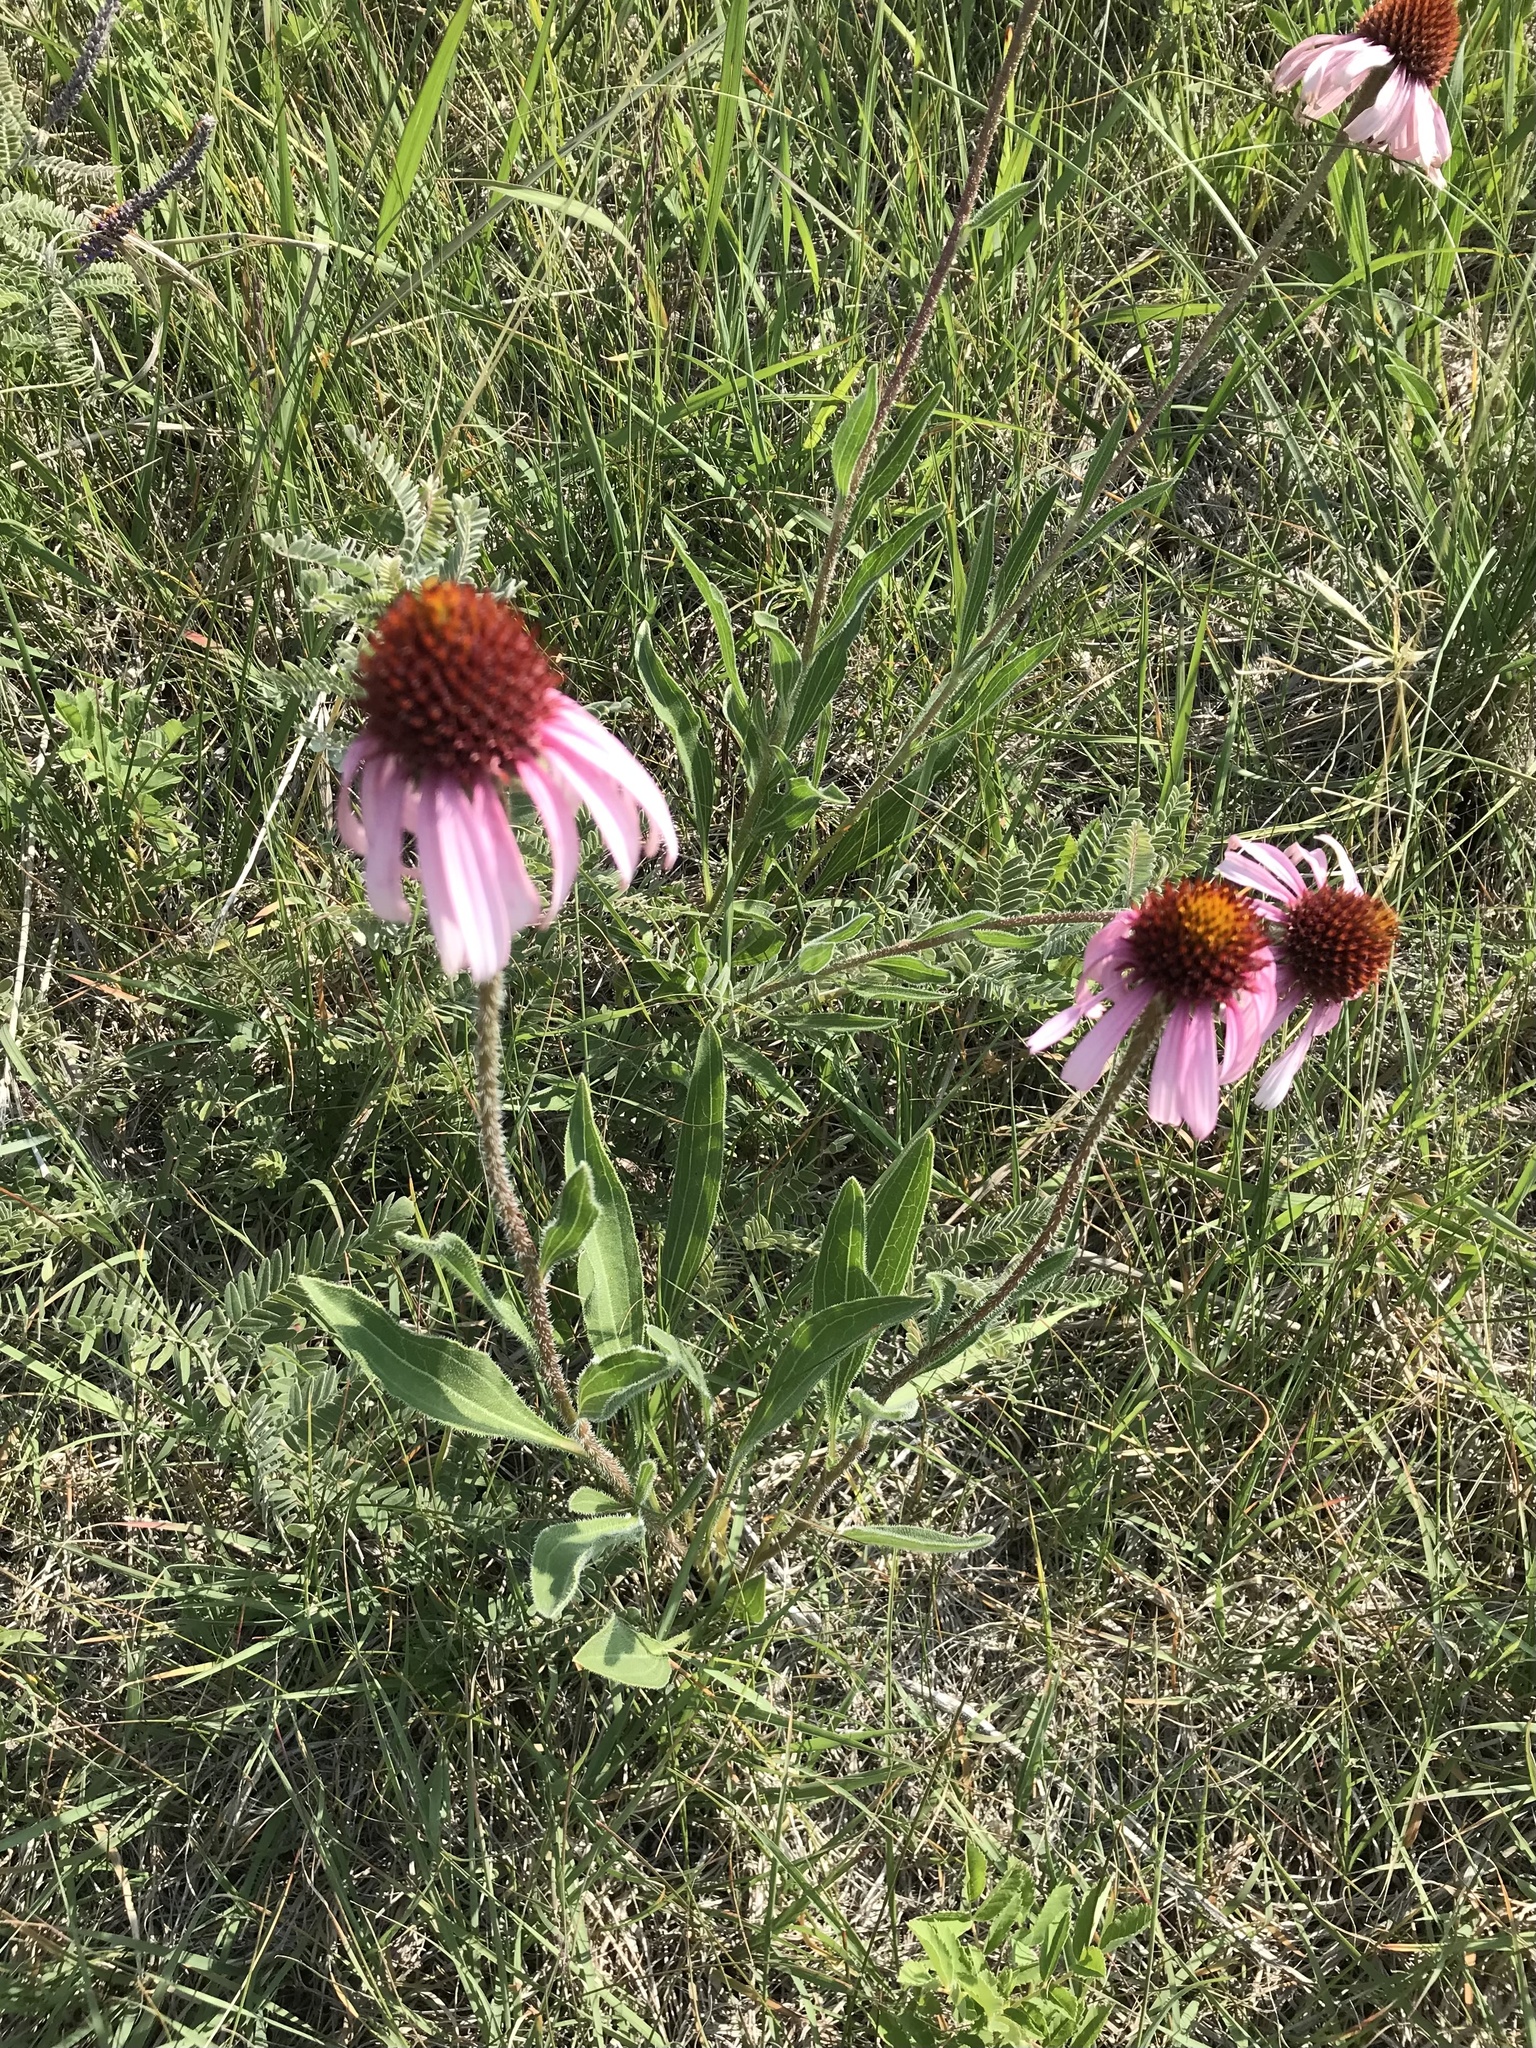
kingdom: Plantae
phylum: Tracheophyta
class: Magnoliopsida
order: Asterales
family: Asteraceae
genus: Echinacea
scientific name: Echinacea angustifolia
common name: Black-sampson echinacea
